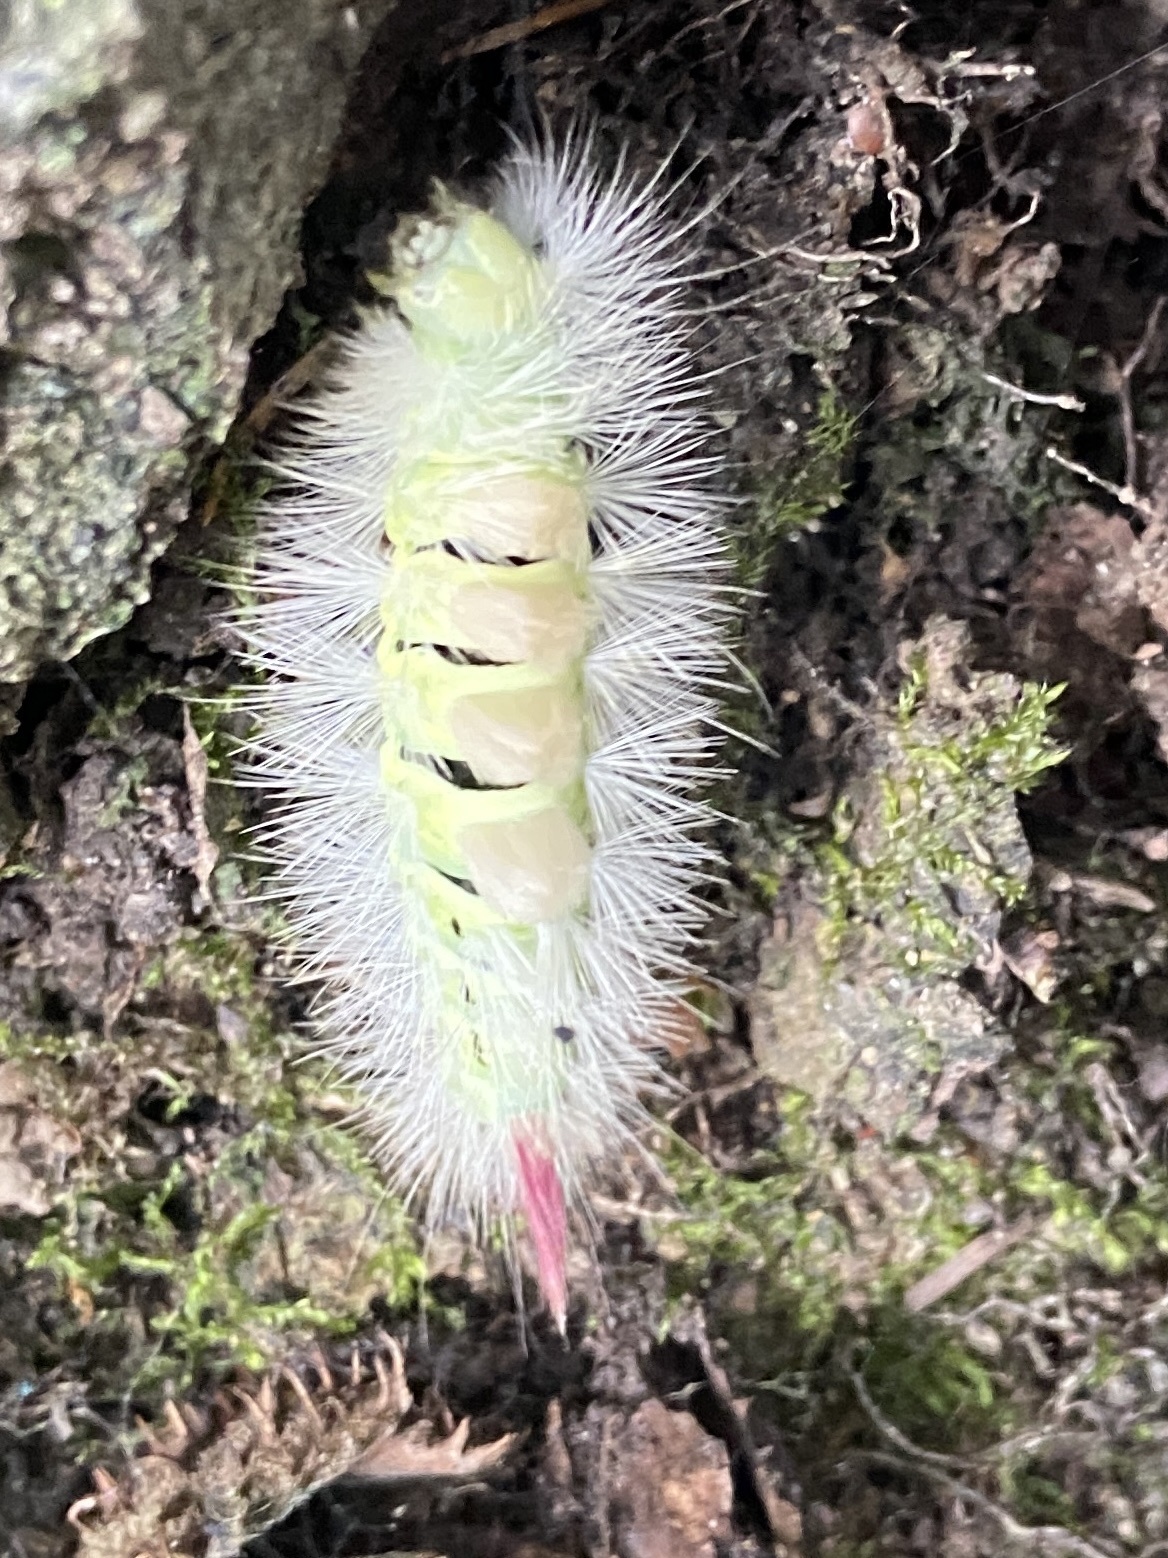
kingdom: Animalia
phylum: Arthropoda
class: Insecta
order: Lepidoptera
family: Erebidae
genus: Calliteara
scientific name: Calliteara pudibunda
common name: Pale tussock
